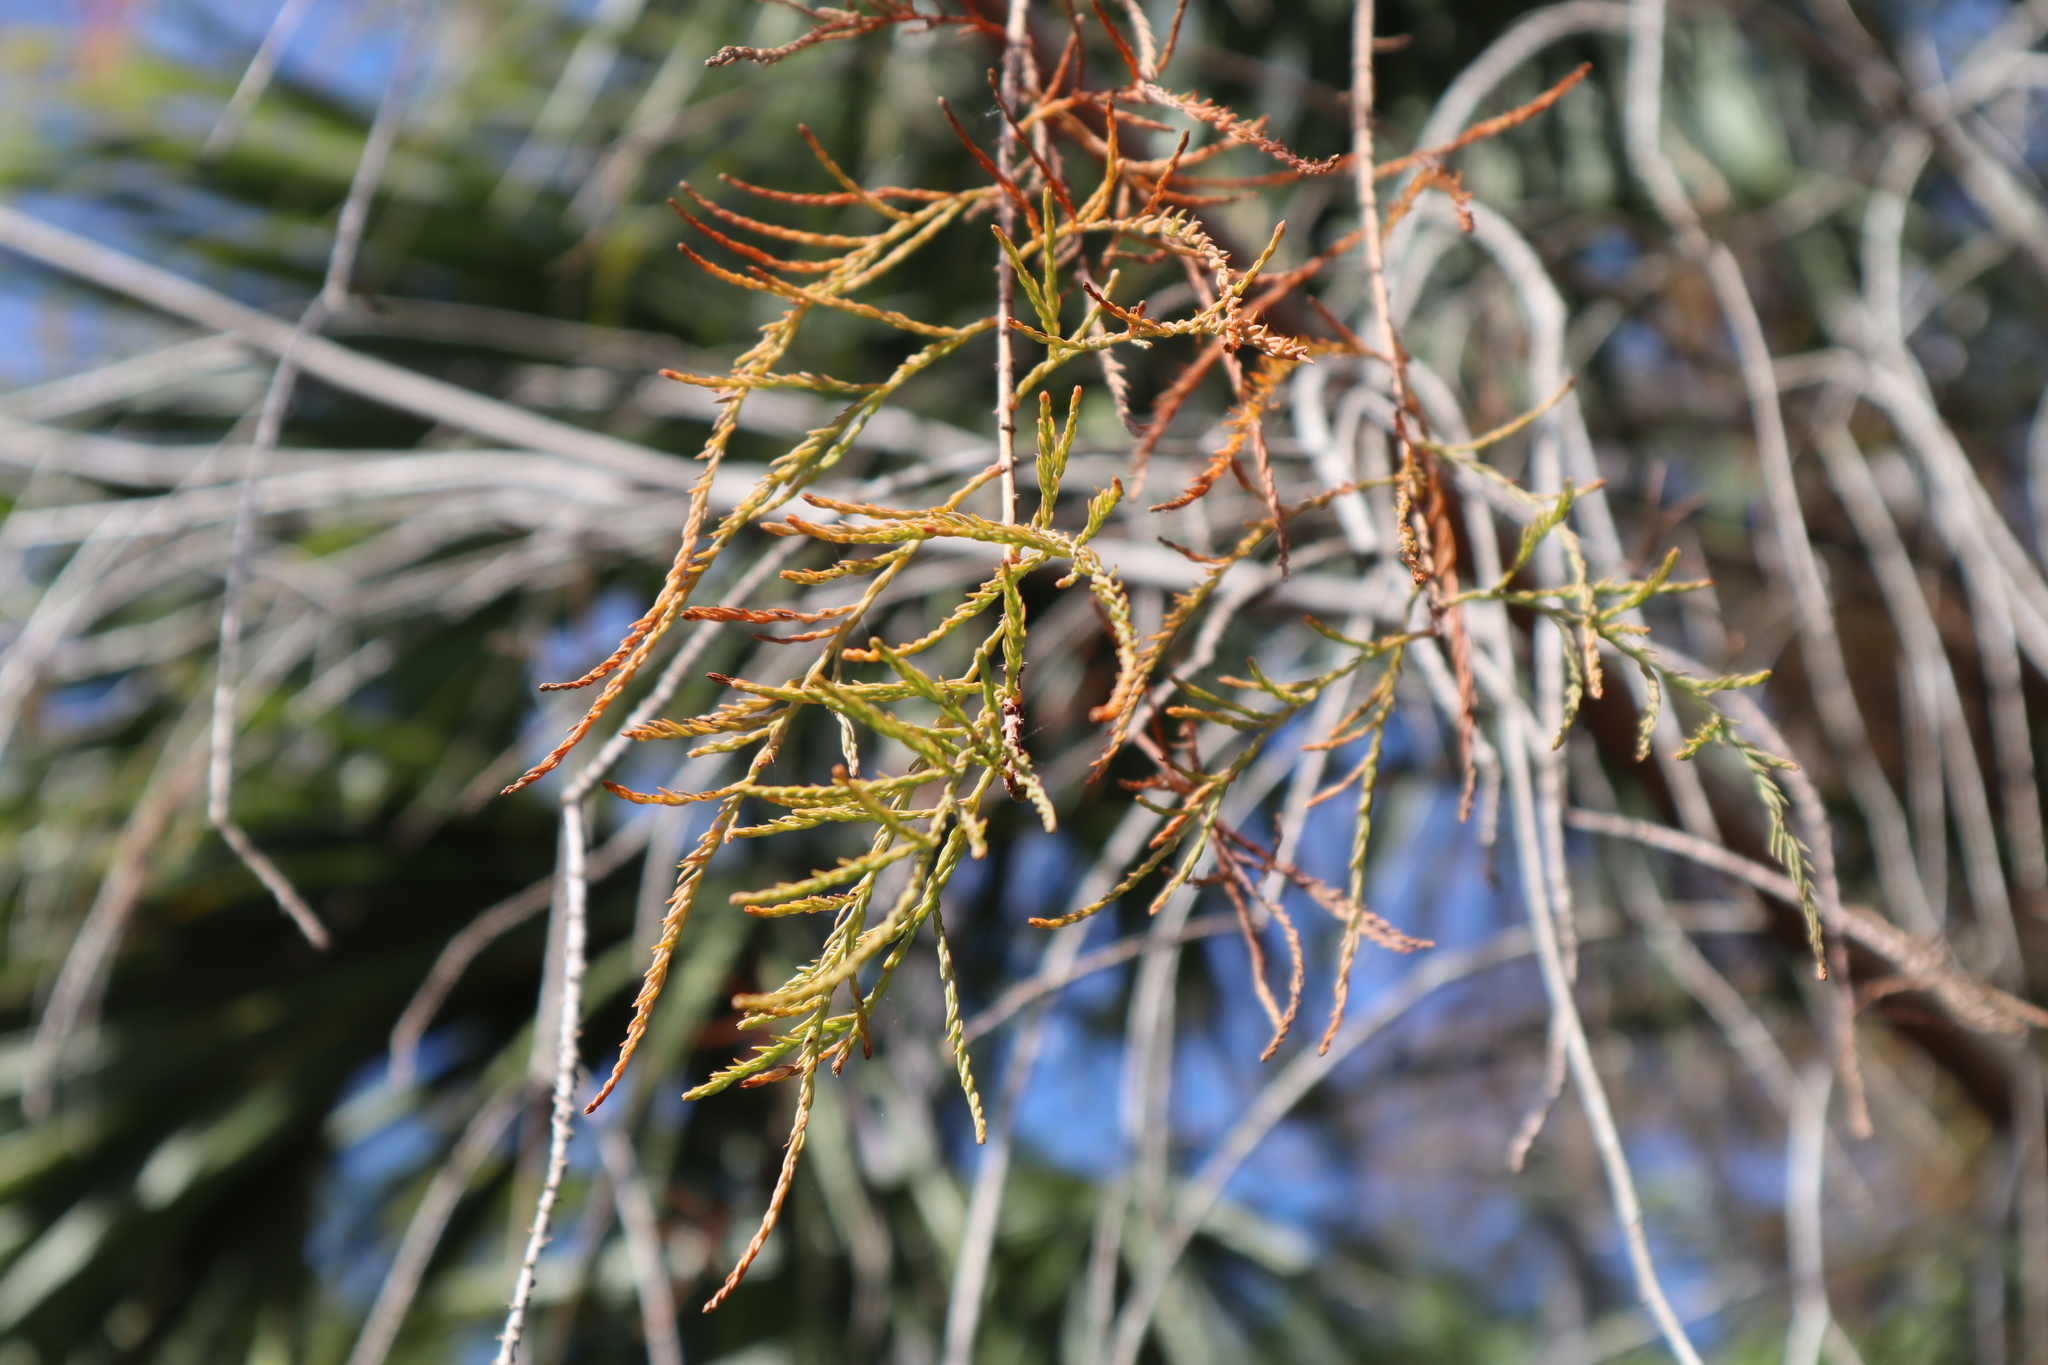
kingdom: Plantae
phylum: Tracheophyta
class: Pinopsida
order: Pinales
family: Cupressaceae
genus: Taxodium
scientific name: Taxodium distichum
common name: Bald cypress
